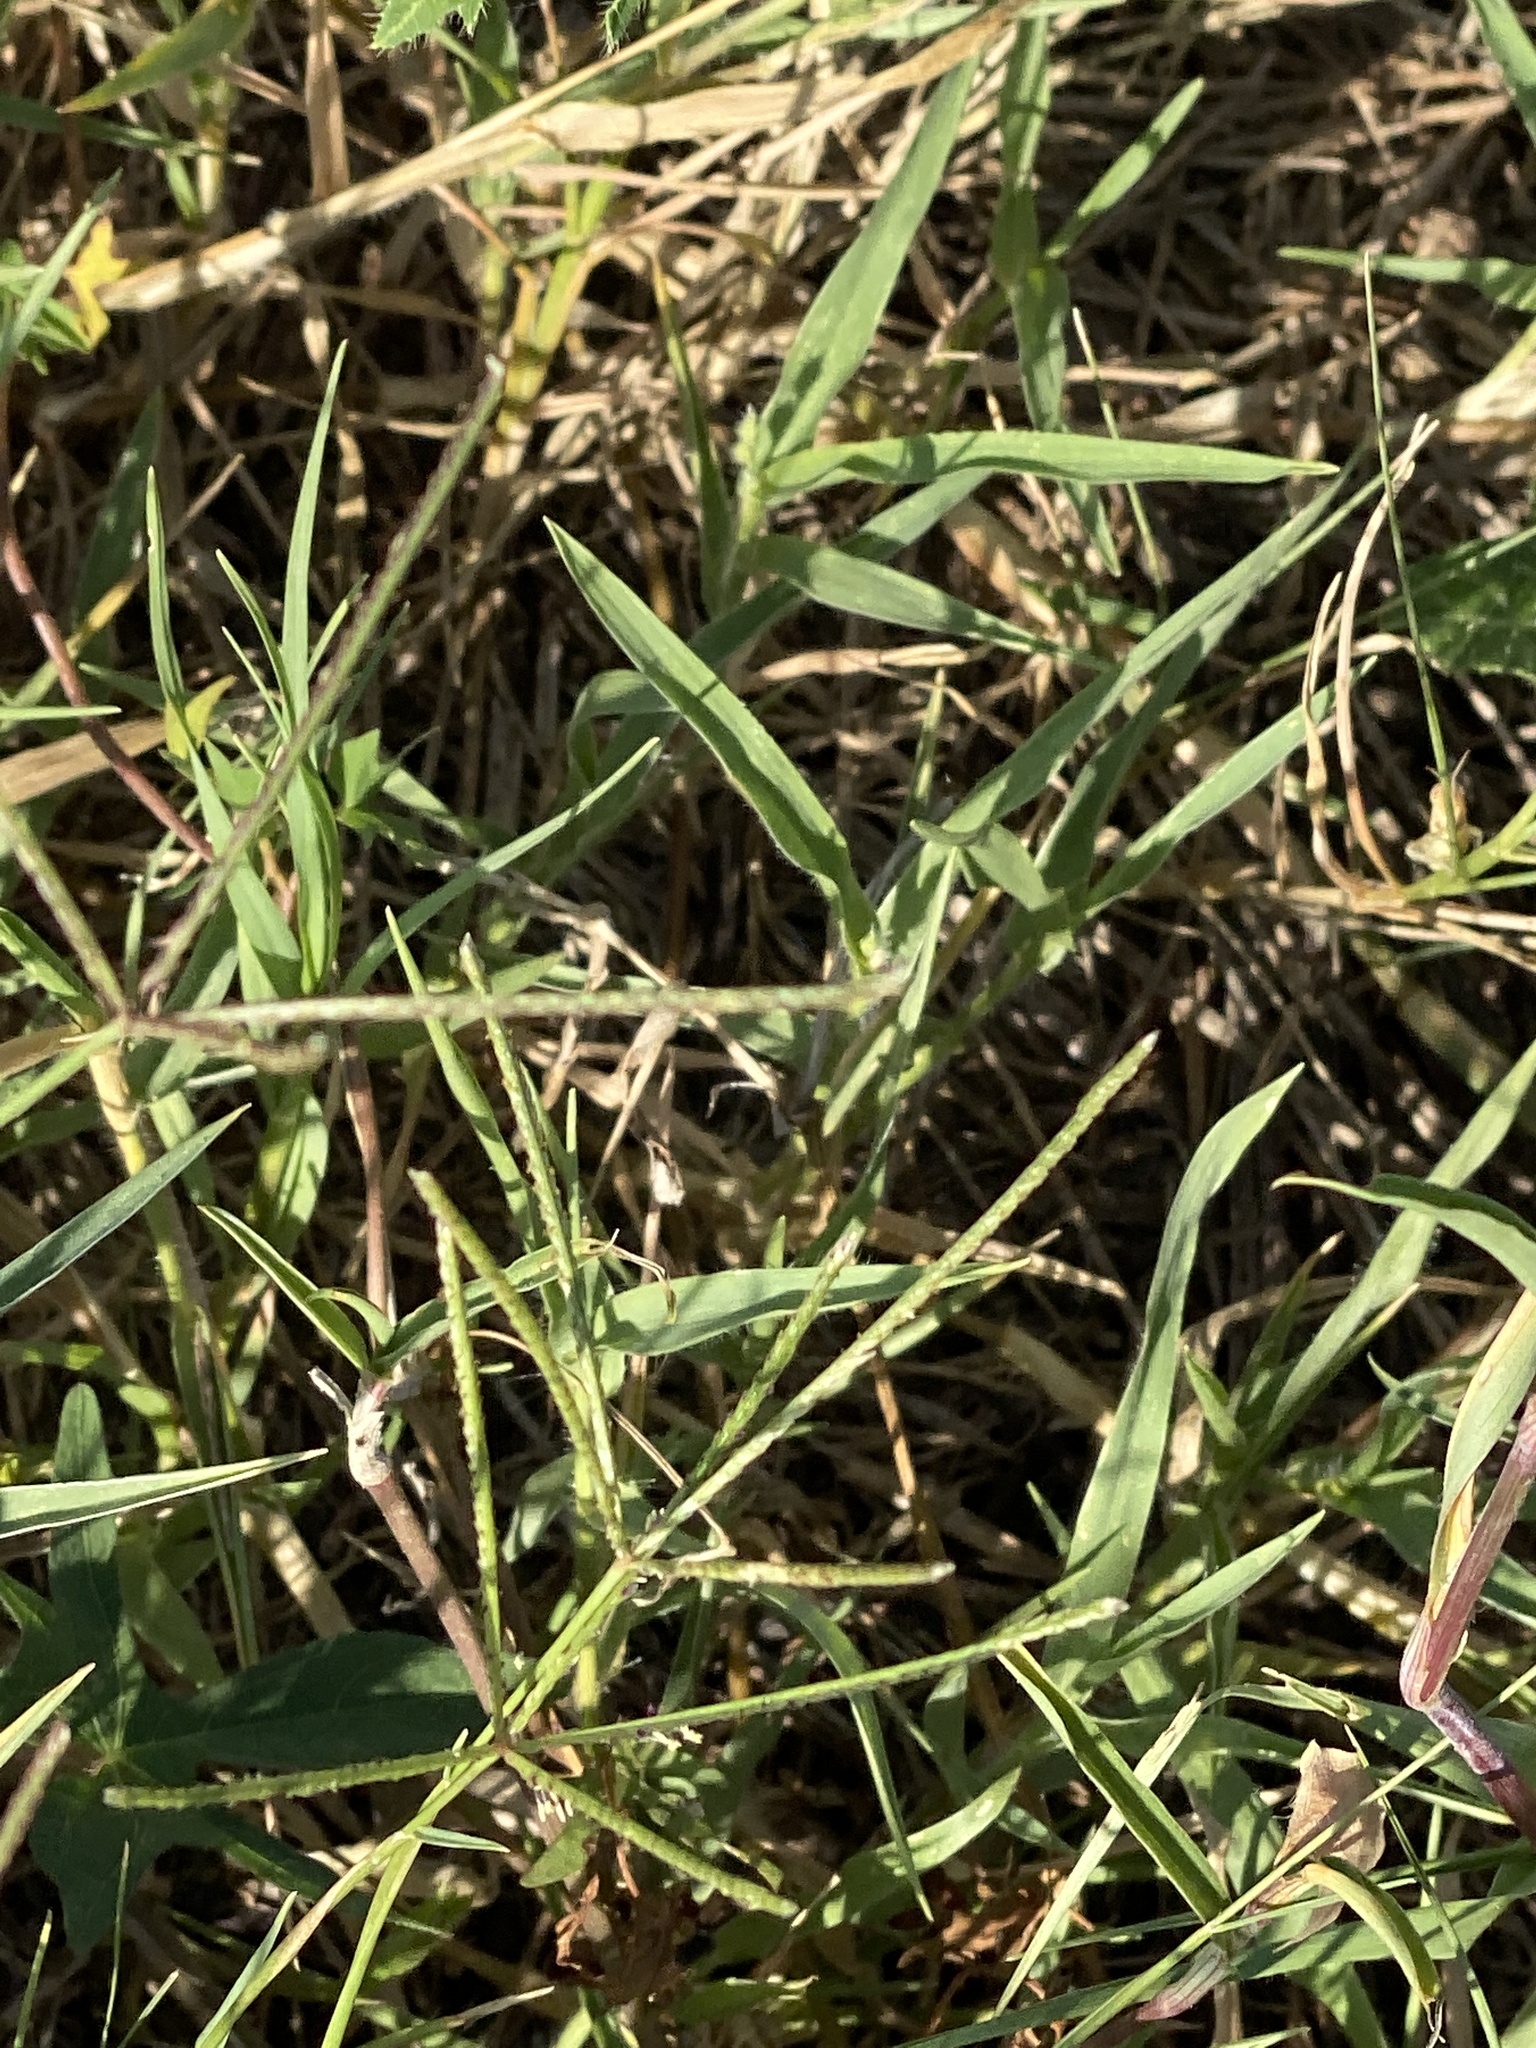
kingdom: Plantae
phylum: Tracheophyta
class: Magnoliopsida
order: Malpighiales
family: Euphorbiaceae
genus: Cnidoscolus
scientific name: Cnidoscolus texanus
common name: Texas bull-nettle
